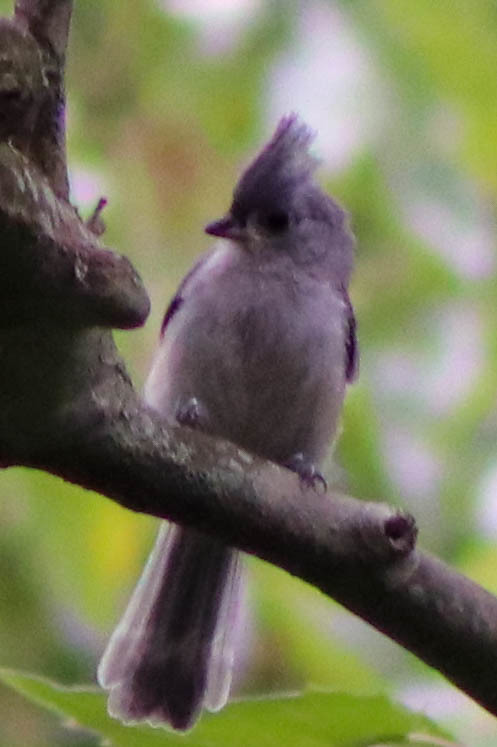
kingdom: Animalia
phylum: Chordata
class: Aves
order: Passeriformes
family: Paridae
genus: Baeolophus
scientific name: Baeolophus bicolor
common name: Tufted titmouse
